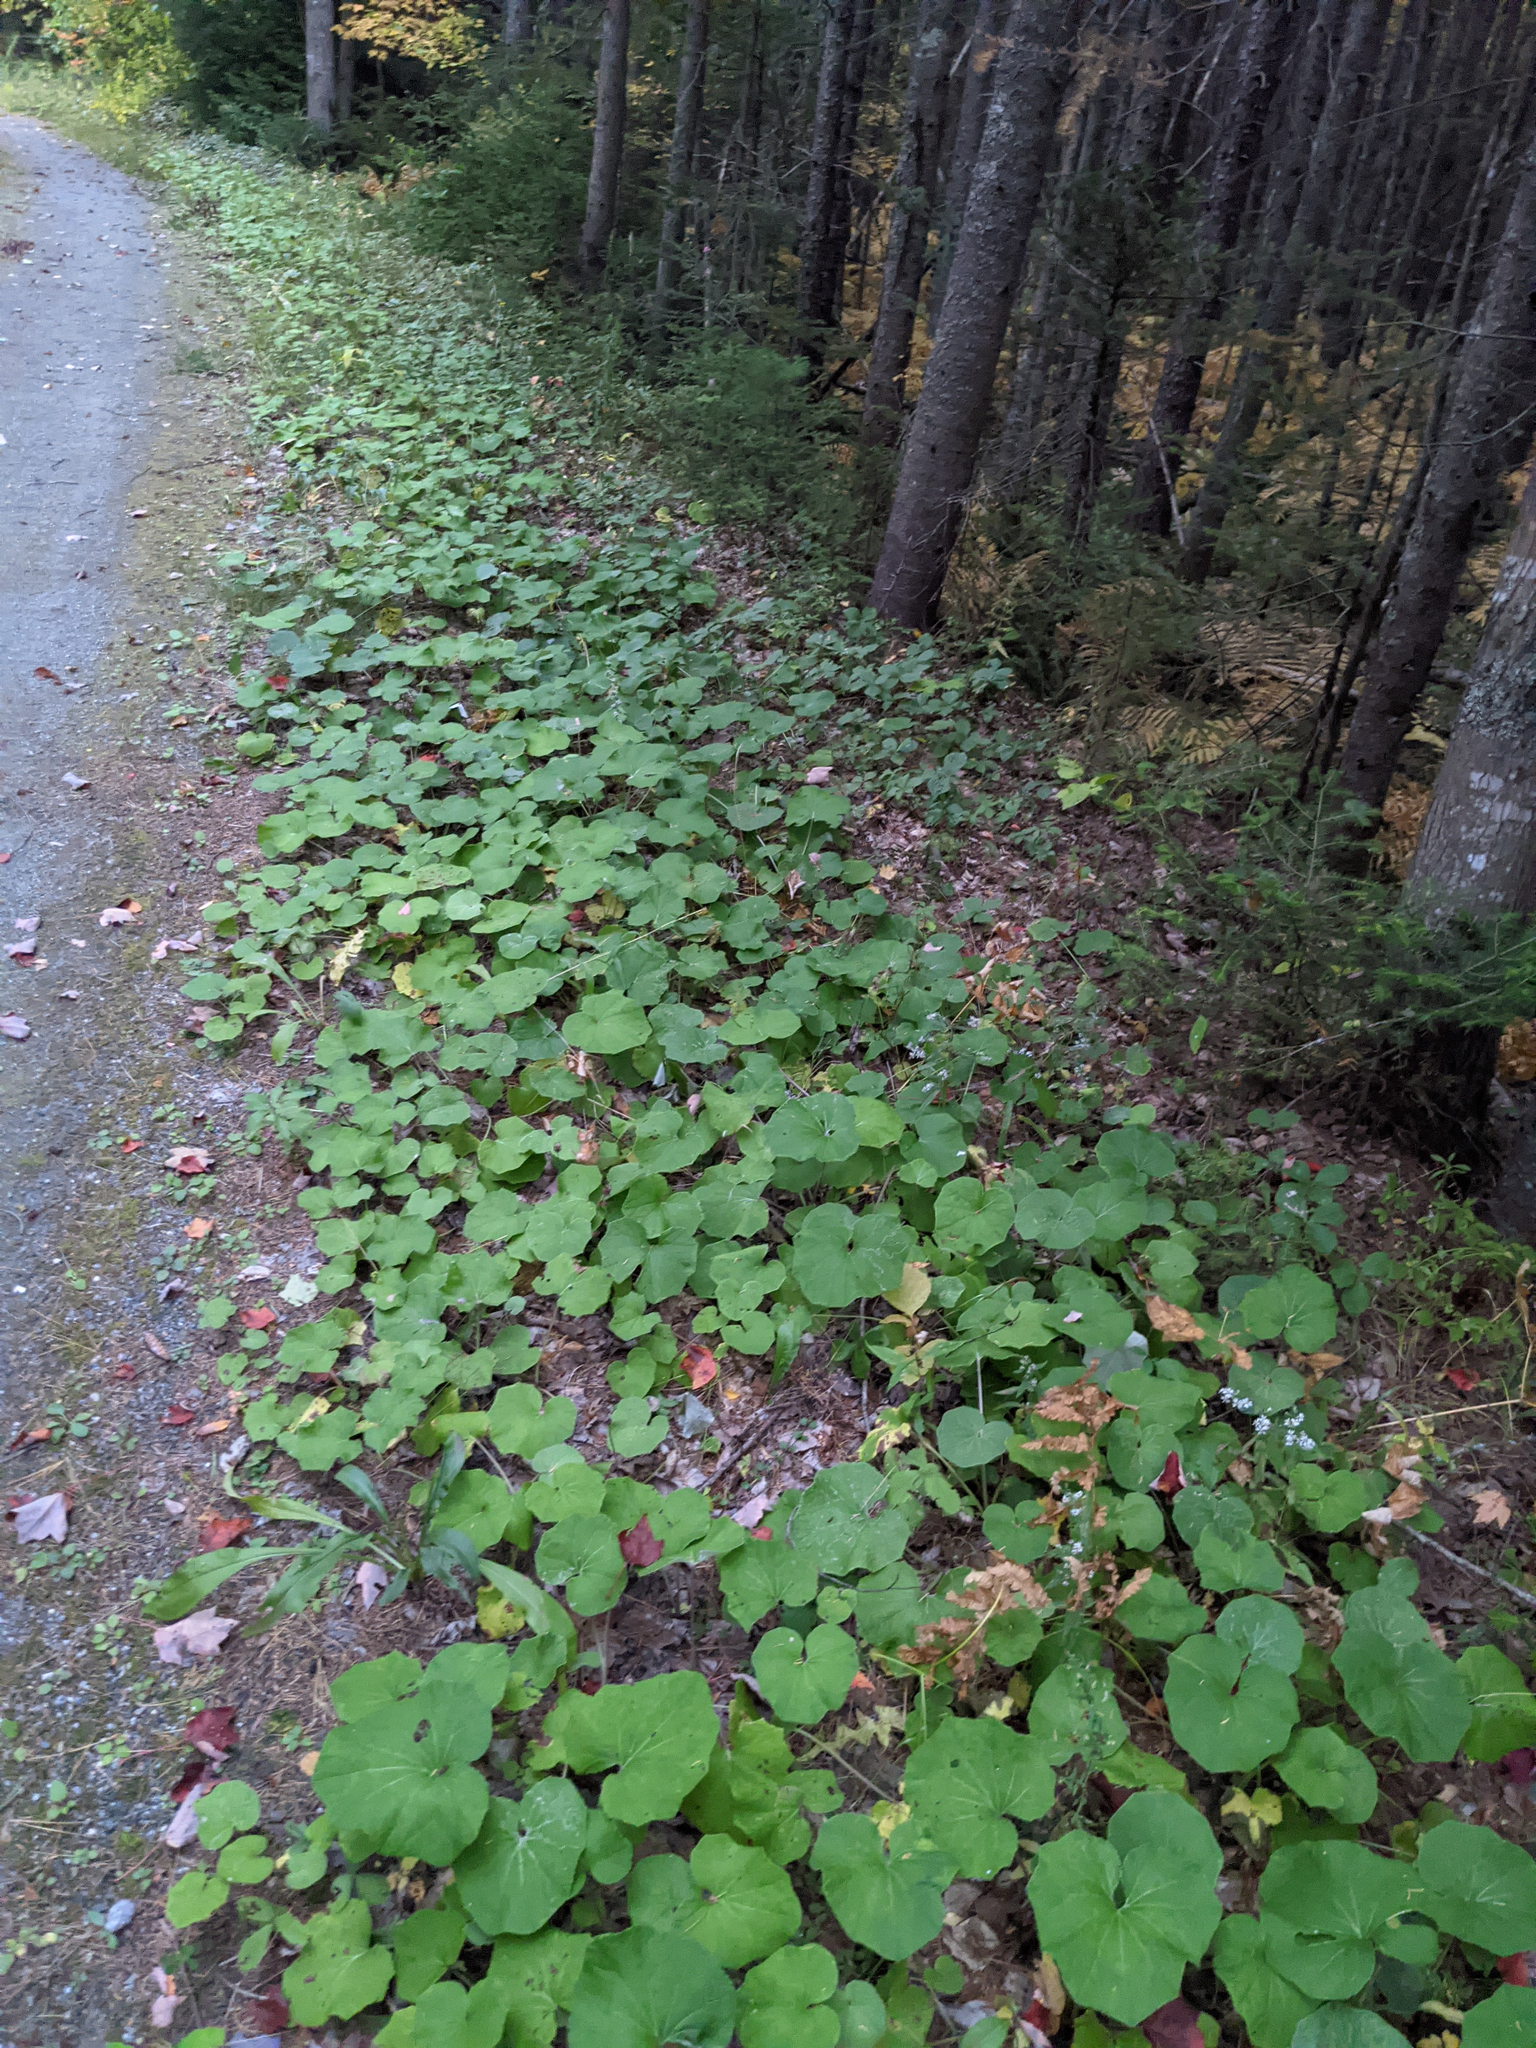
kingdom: Plantae
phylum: Tracheophyta
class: Magnoliopsida
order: Asterales
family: Asteraceae
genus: Tussilago
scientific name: Tussilago farfara
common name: Coltsfoot
